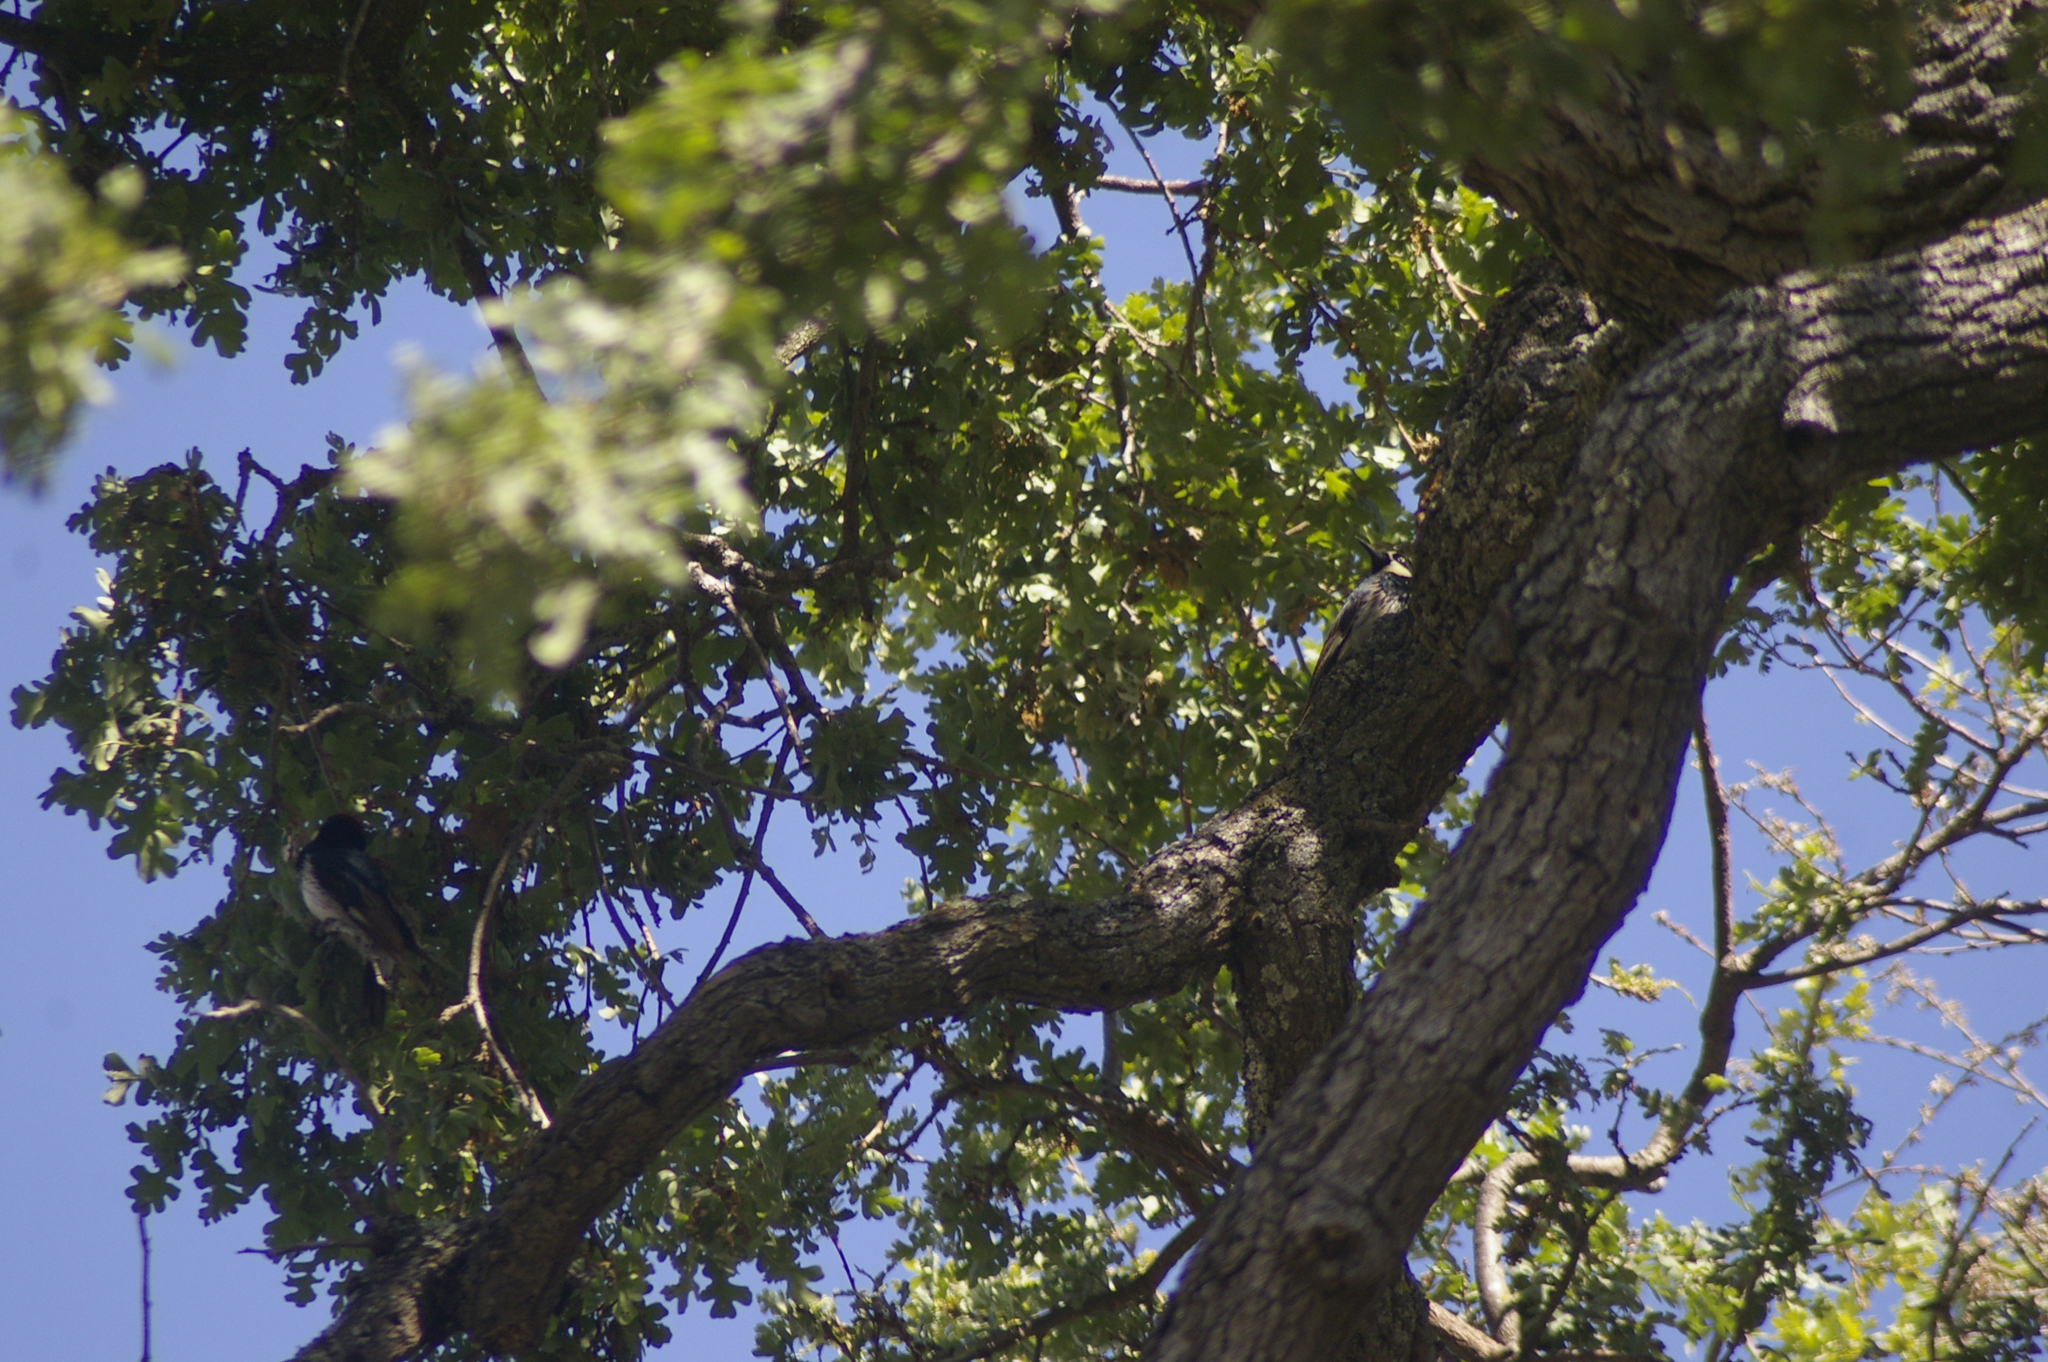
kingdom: Animalia
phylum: Chordata
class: Aves
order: Piciformes
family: Picidae
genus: Melanerpes
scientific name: Melanerpes formicivorus
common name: Acorn woodpecker
